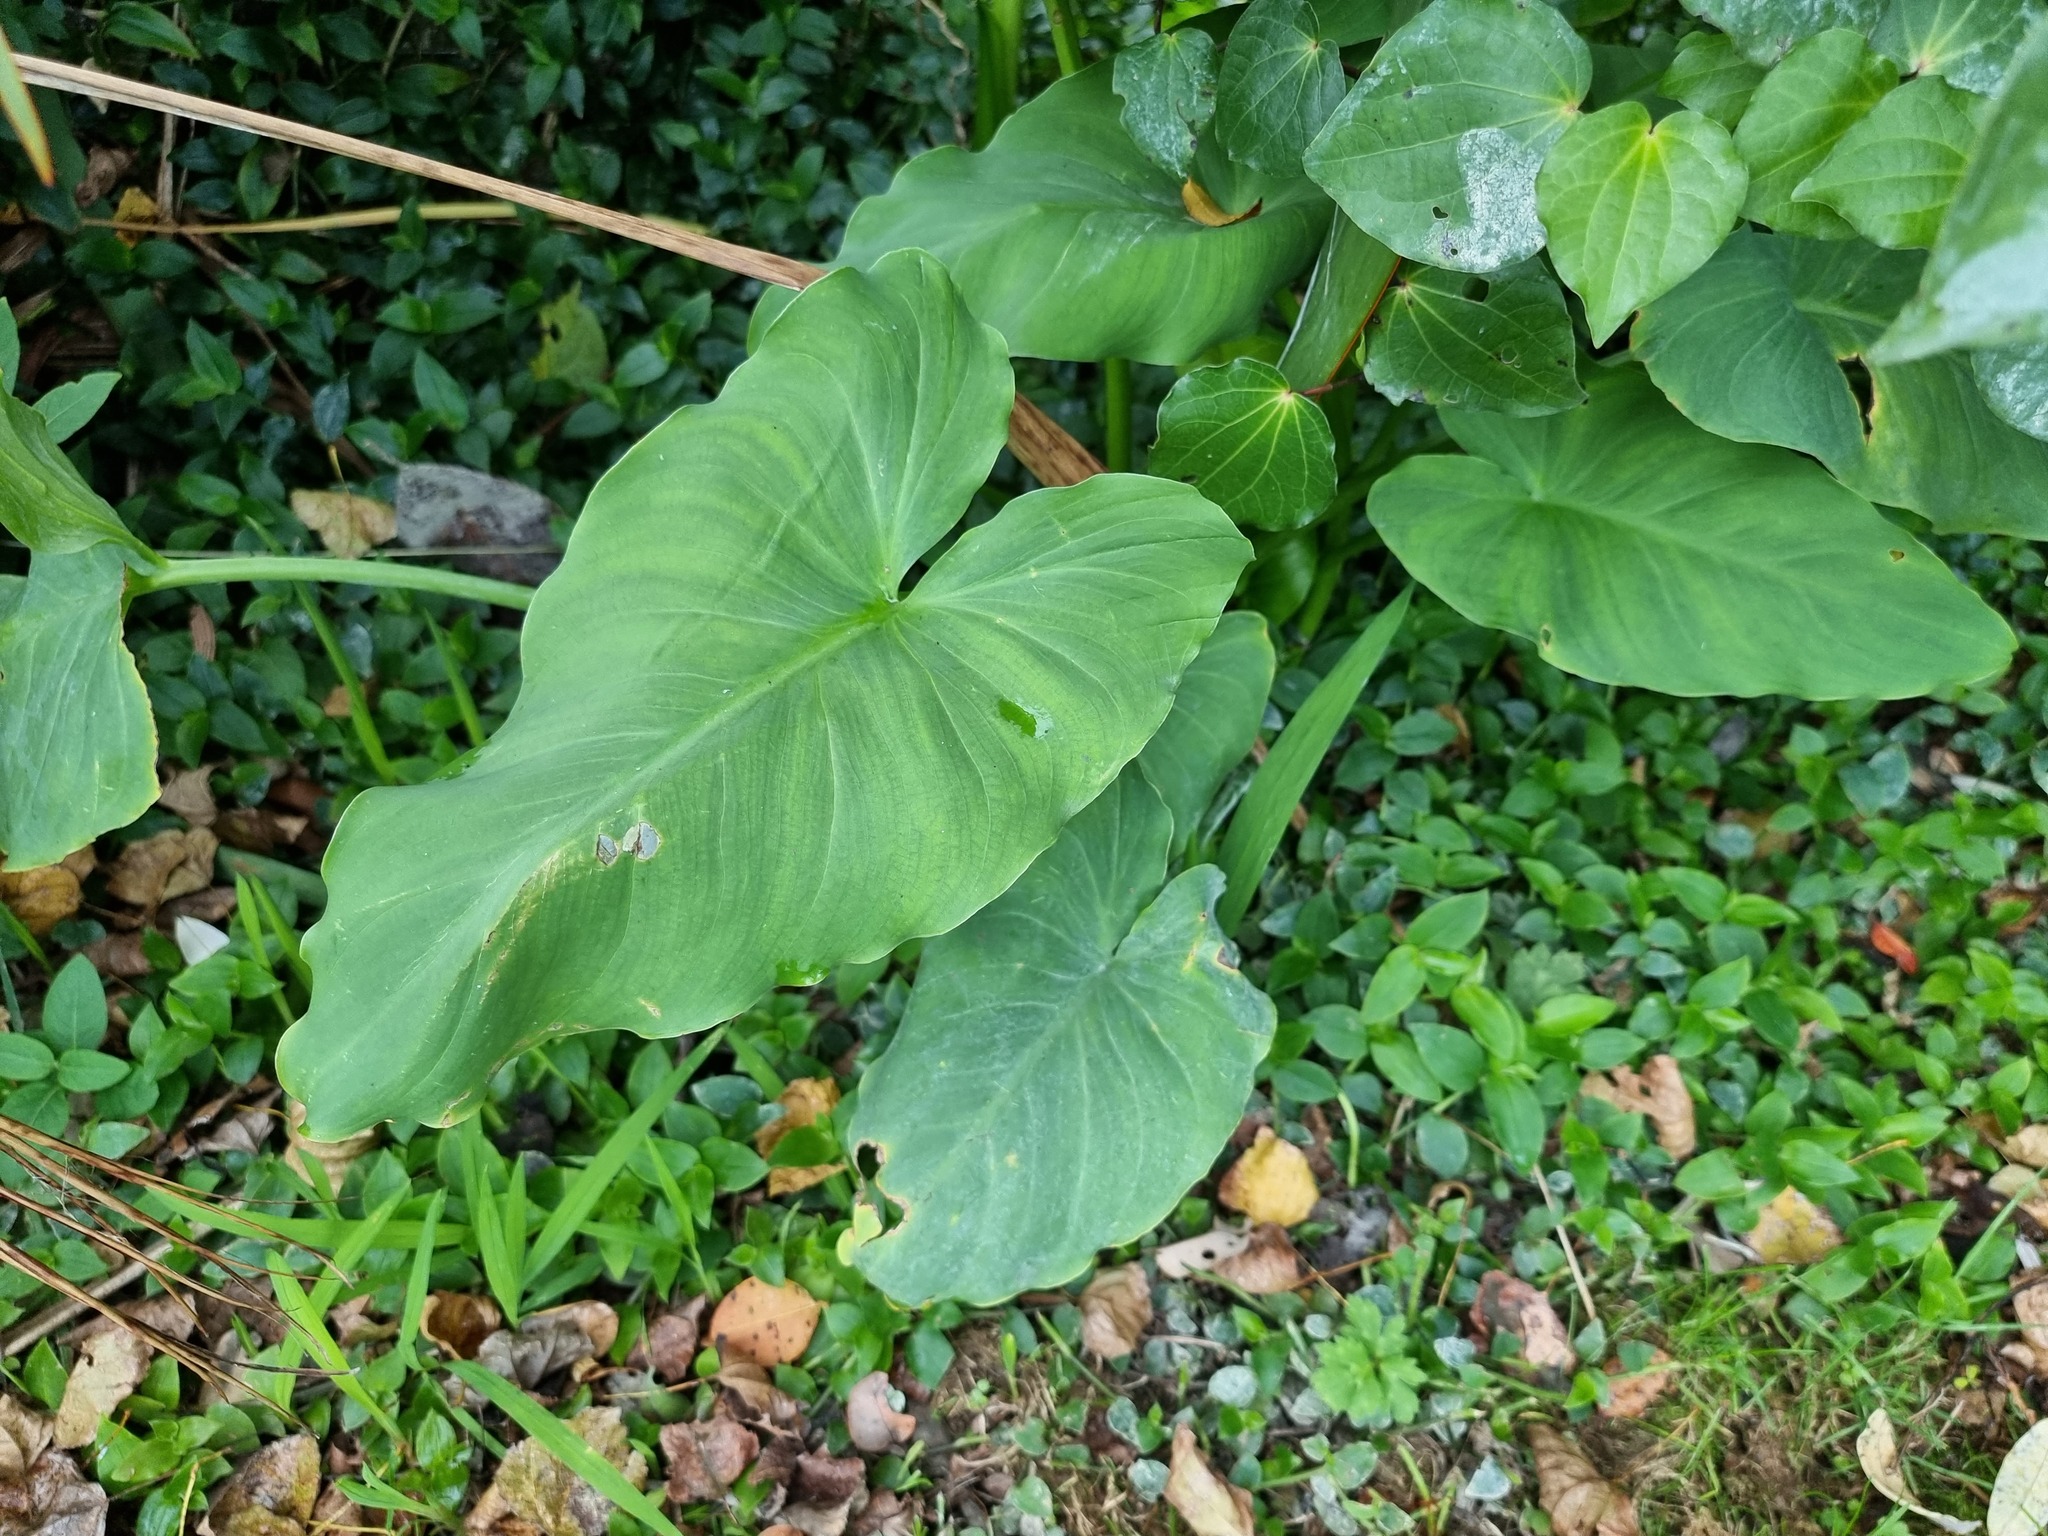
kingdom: Plantae
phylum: Tracheophyta
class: Liliopsida
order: Alismatales
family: Araceae
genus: Zantedeschia
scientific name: Zantedeschia aethiopica
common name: Altar-lily
